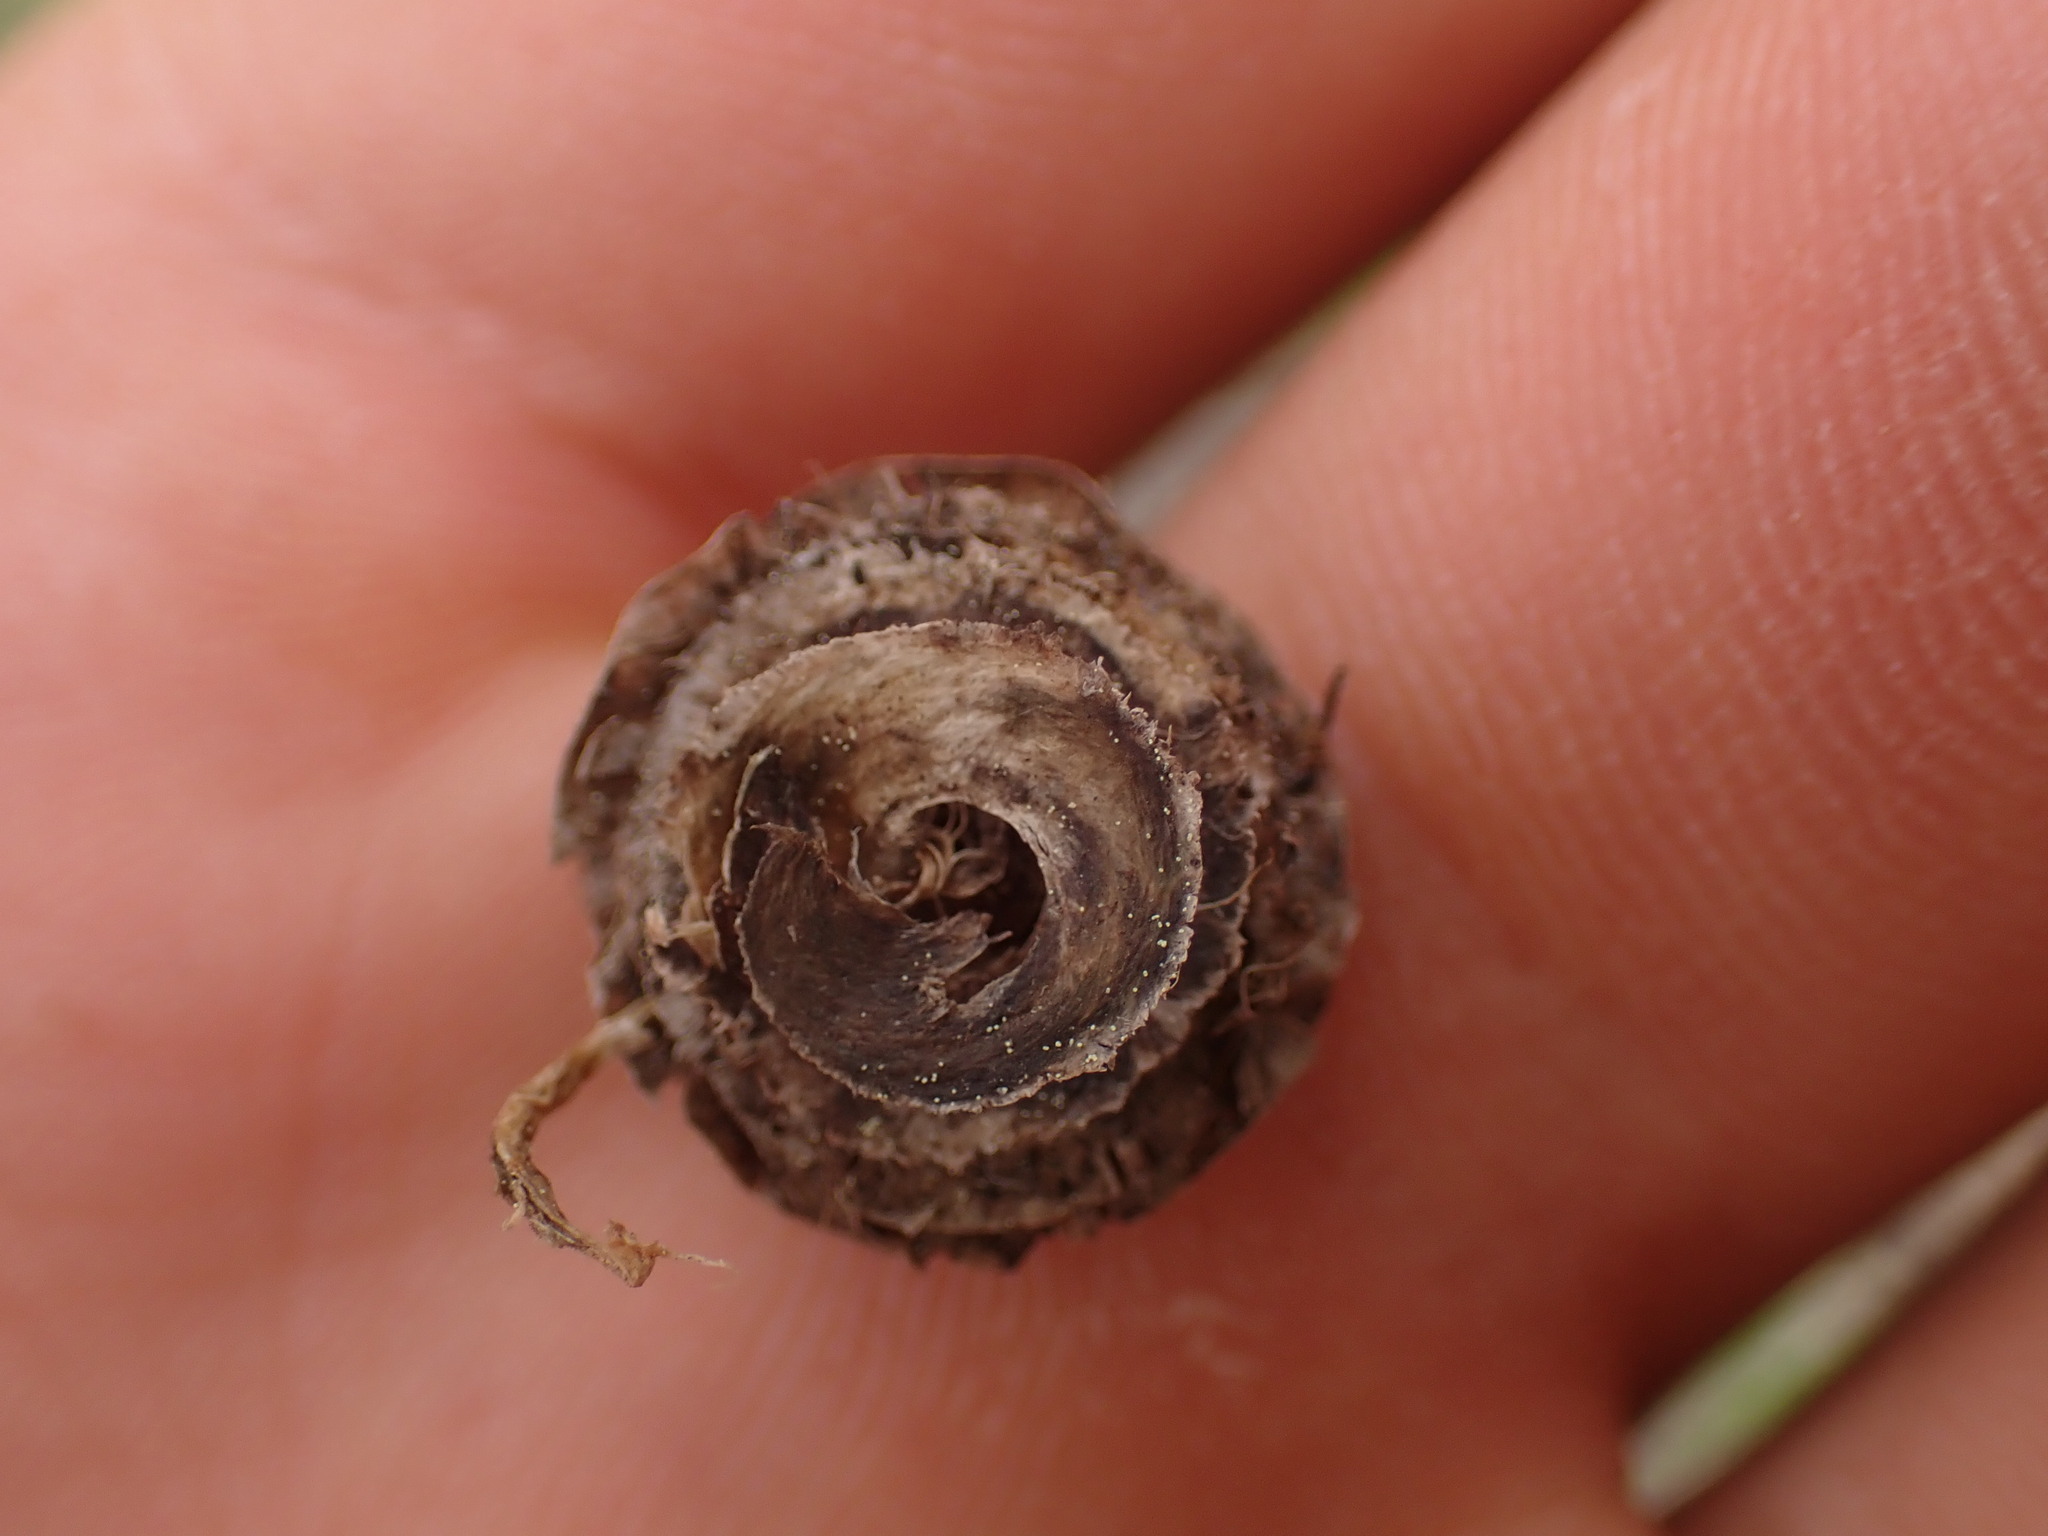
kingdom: Plantae
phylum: Tracheophyta
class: Magnoliopsida
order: Fabales
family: Fabaceae
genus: Medicago
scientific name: Medicago orbicularis
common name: Button medick
